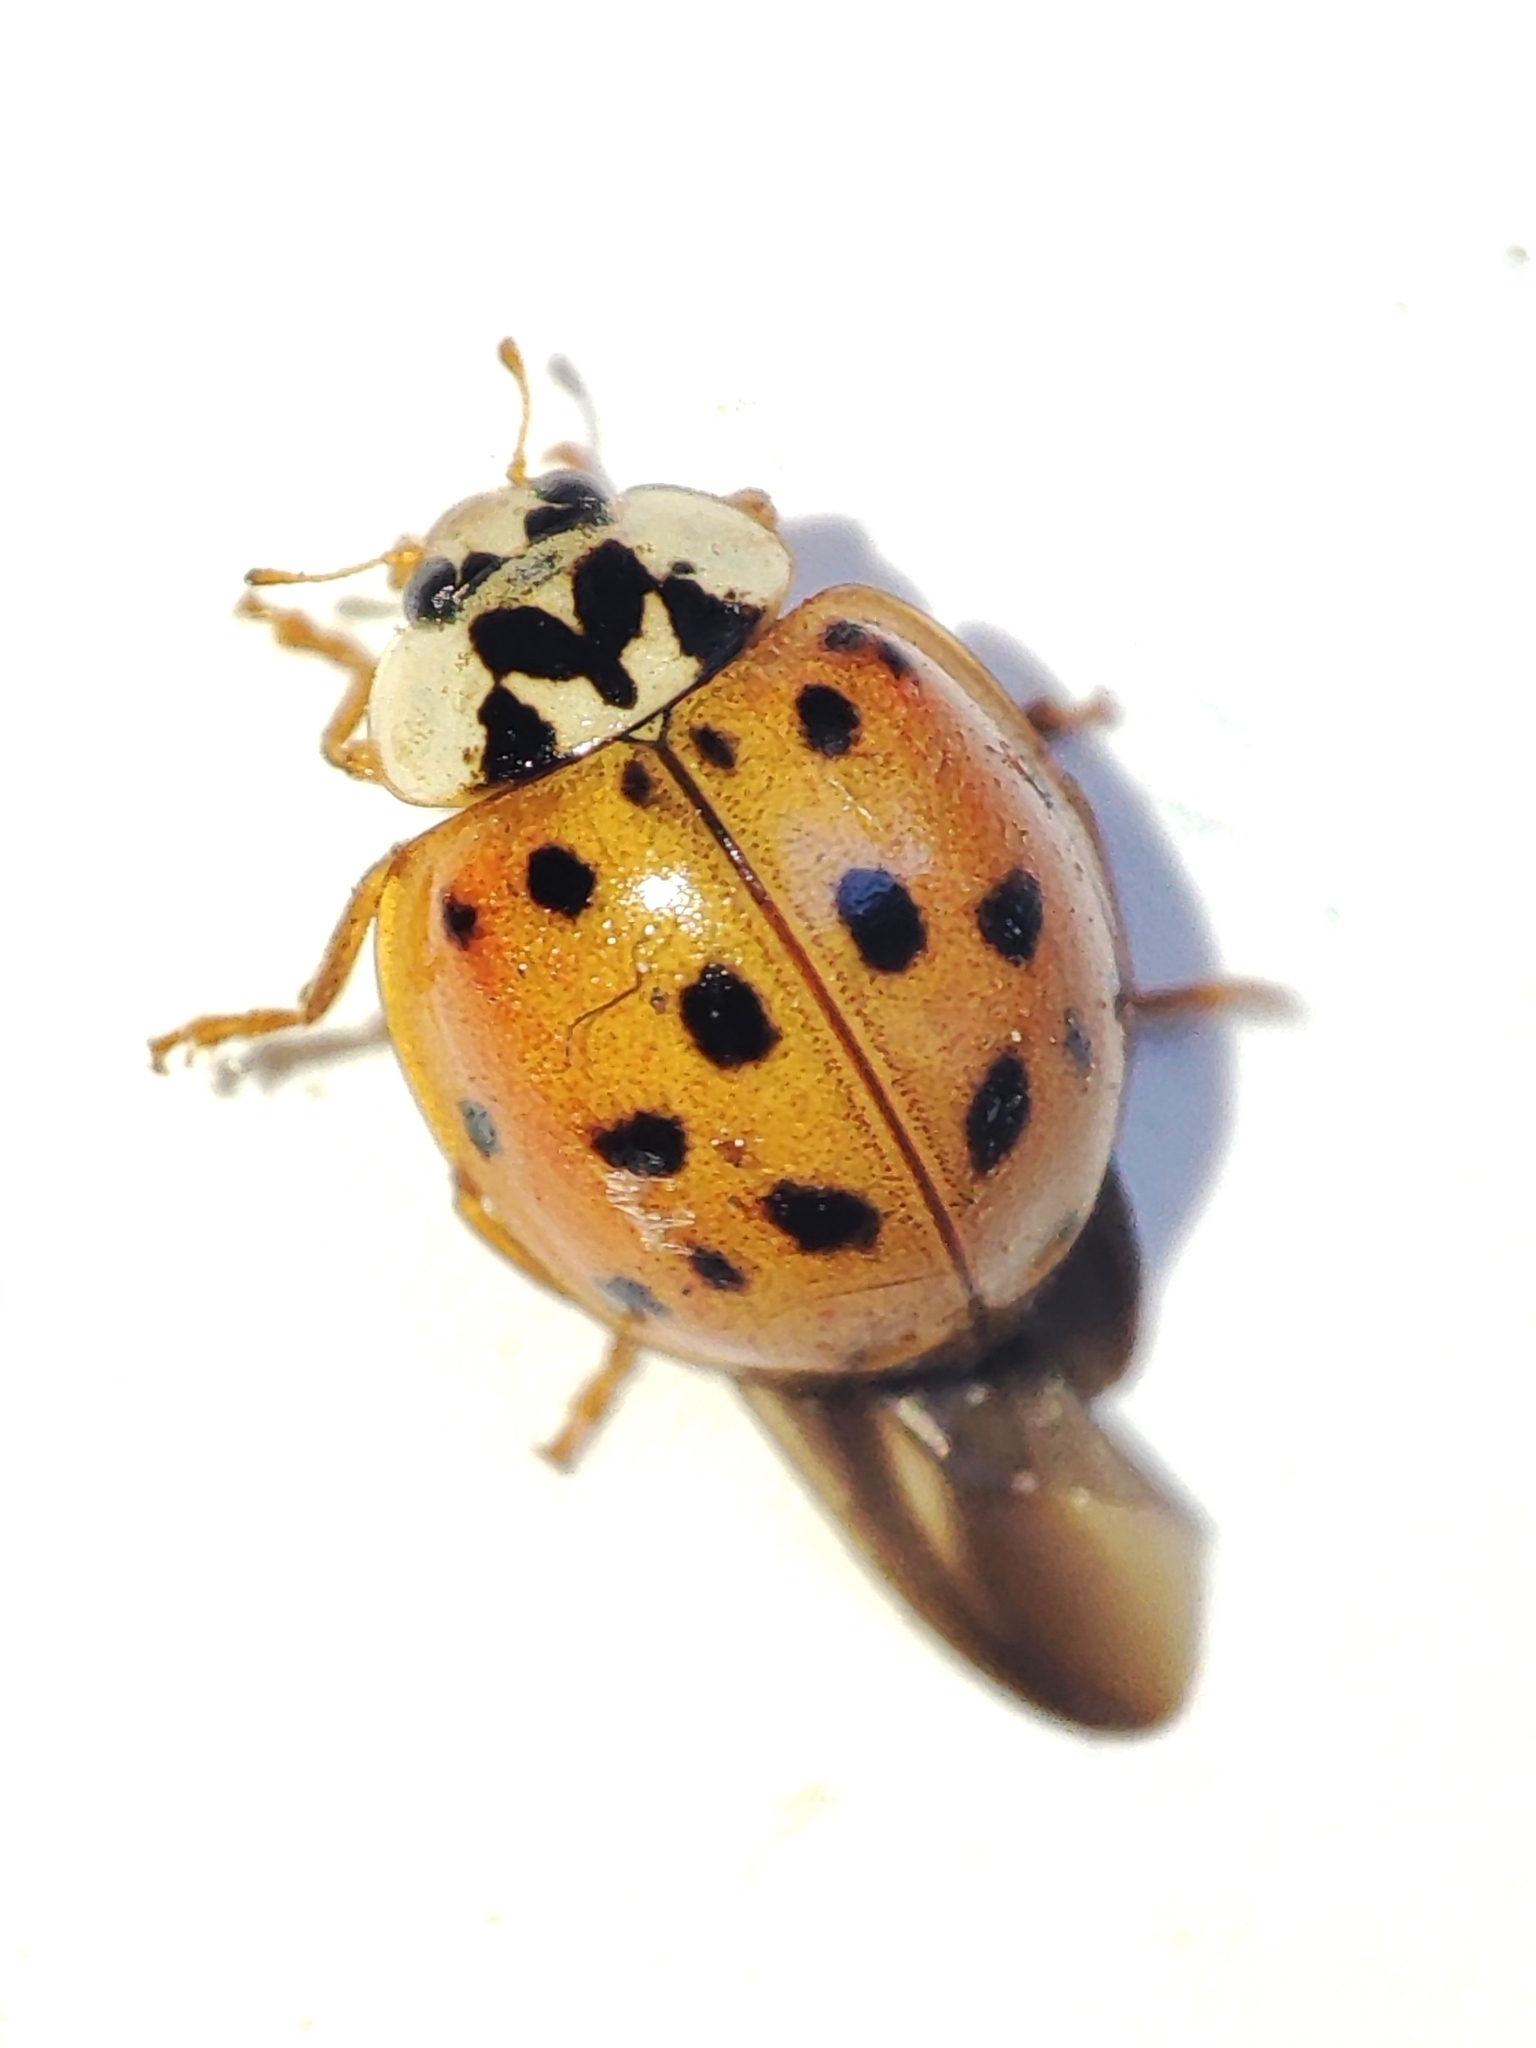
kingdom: Animalia
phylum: Arthropoda
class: Insecta
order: Coleoptera
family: Coccinellidae
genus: Harmonia
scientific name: Harmonia axyridis
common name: Harlequin ladybird
